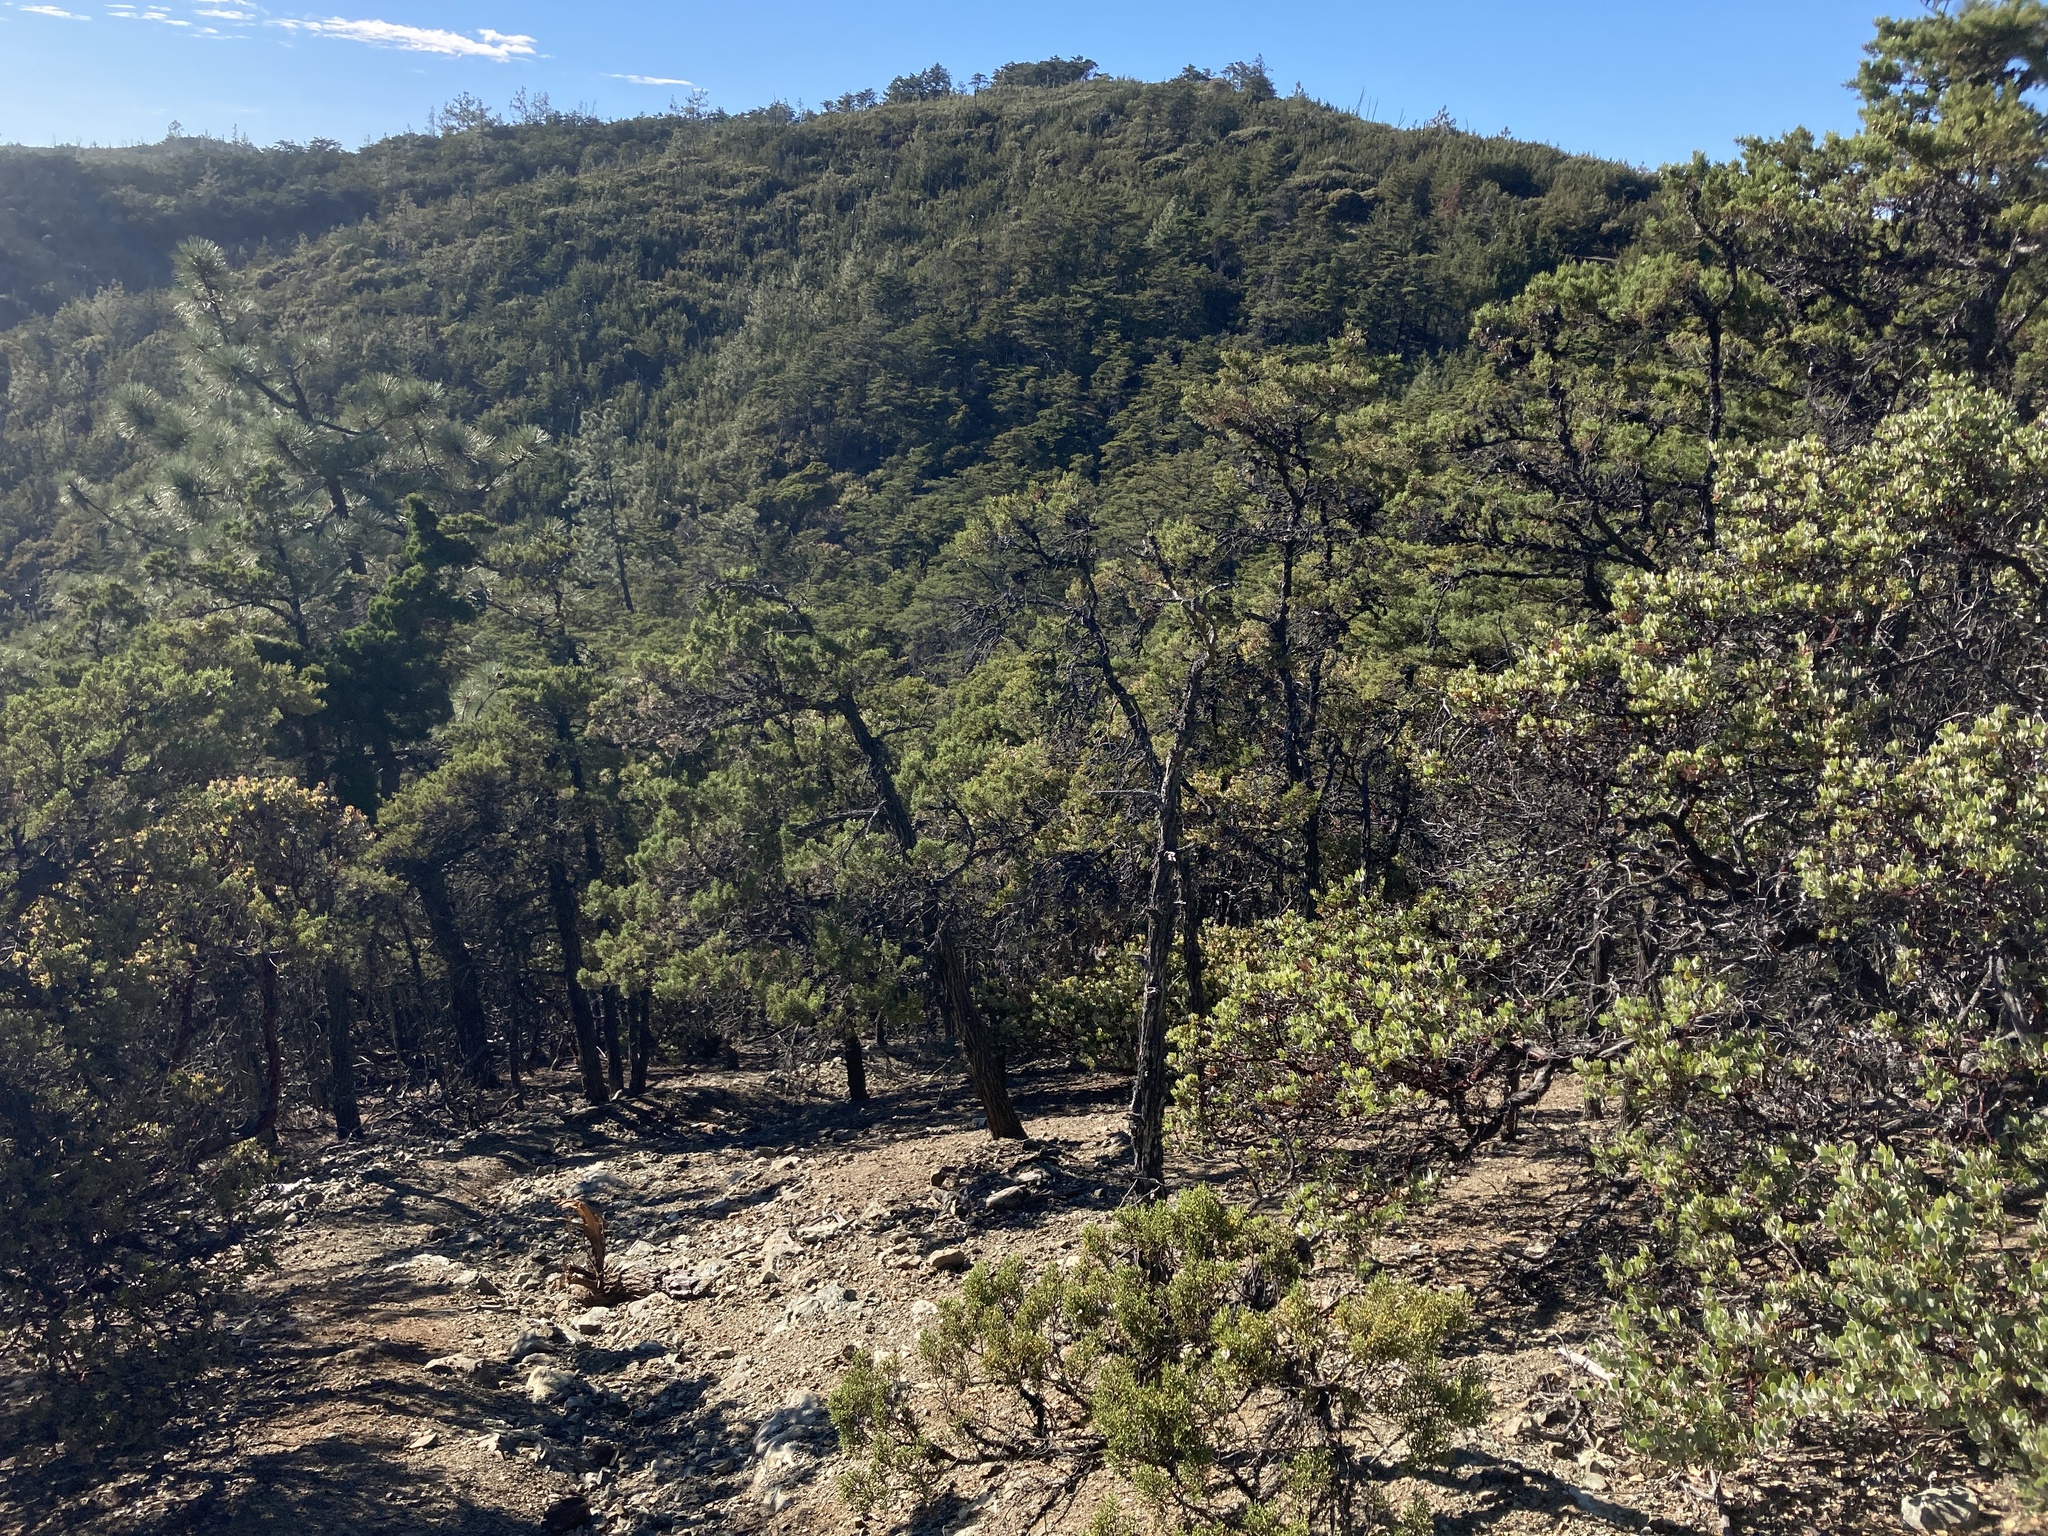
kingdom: Plantae
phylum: Tracheophyta
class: Pinopsida
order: Pinales
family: Cupressaceae
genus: Cupressus
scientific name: Cupressus sargentii
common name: Sargent cypress
